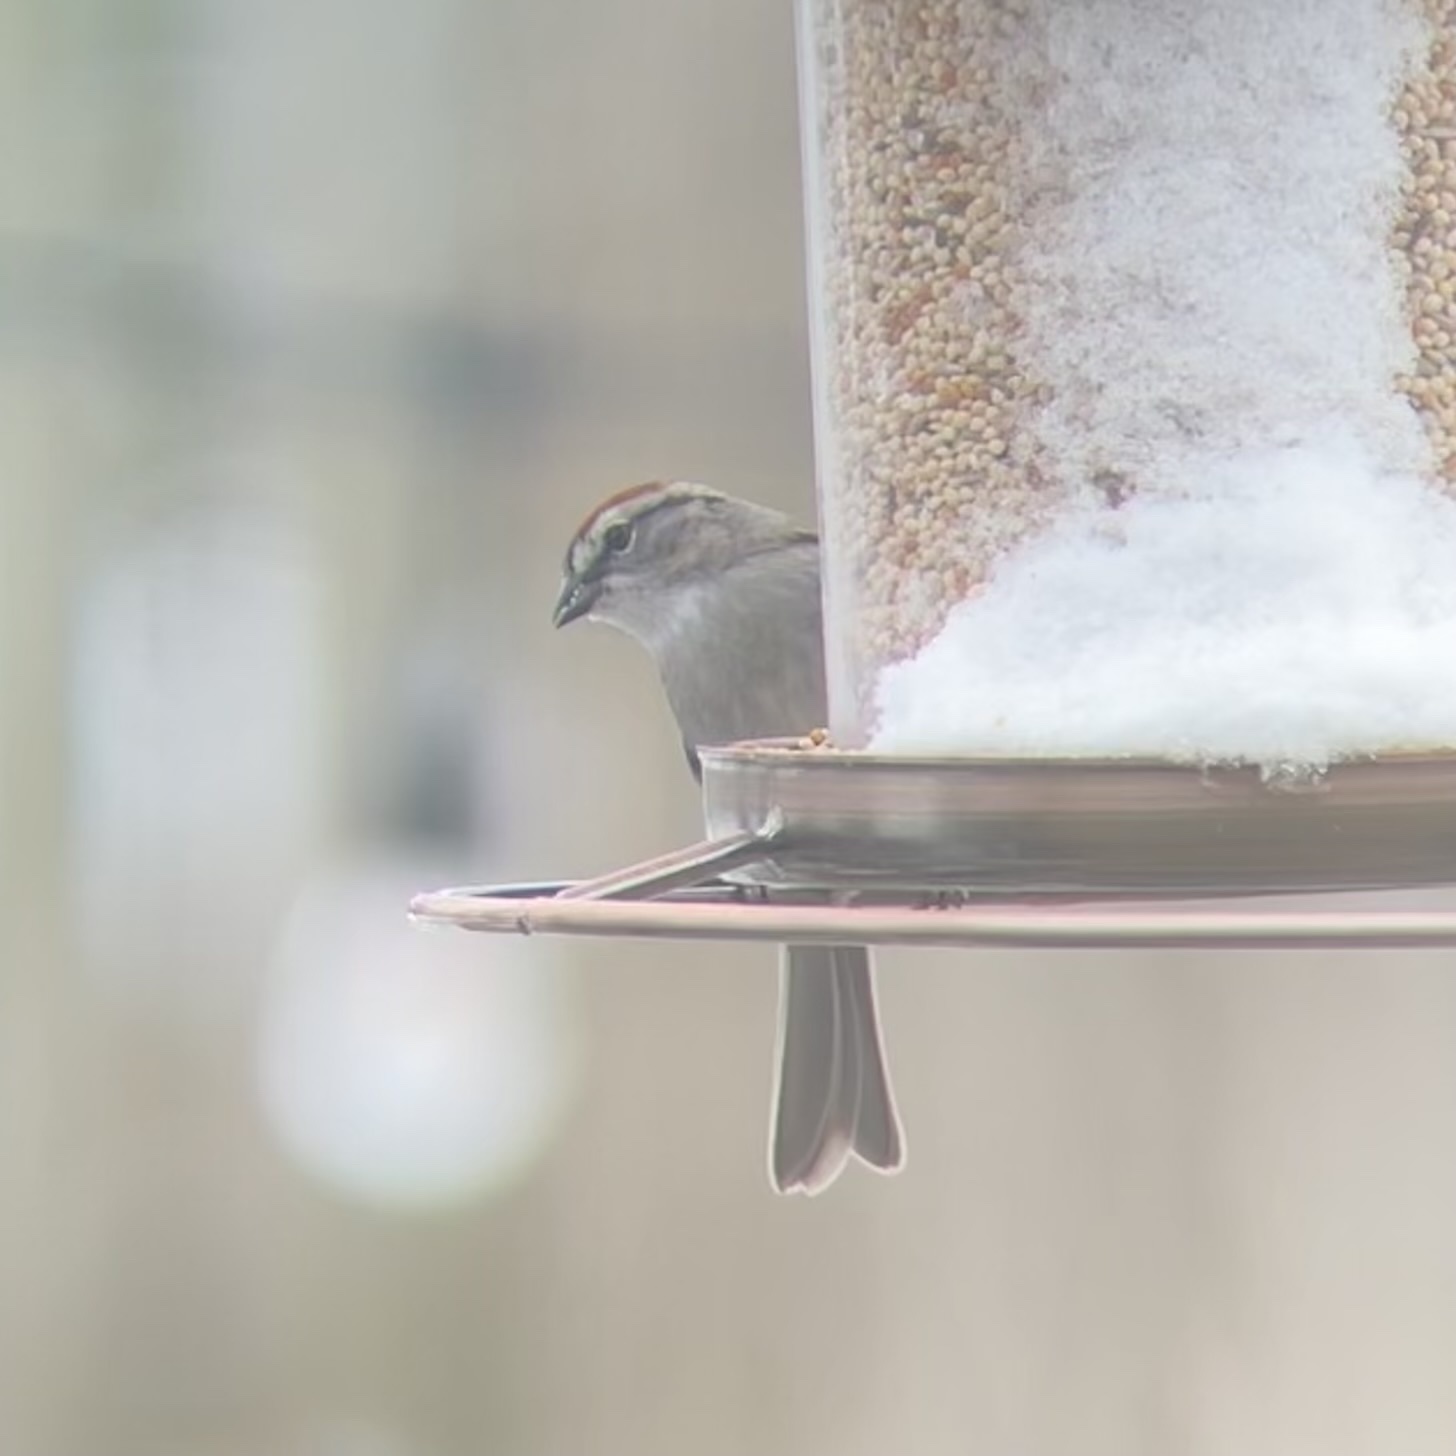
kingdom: Animalia
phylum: Chordata
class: Aves
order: Passeriformes
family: Passerellidae
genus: Spizella
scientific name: Spizella passerina
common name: Chipping sparrow
